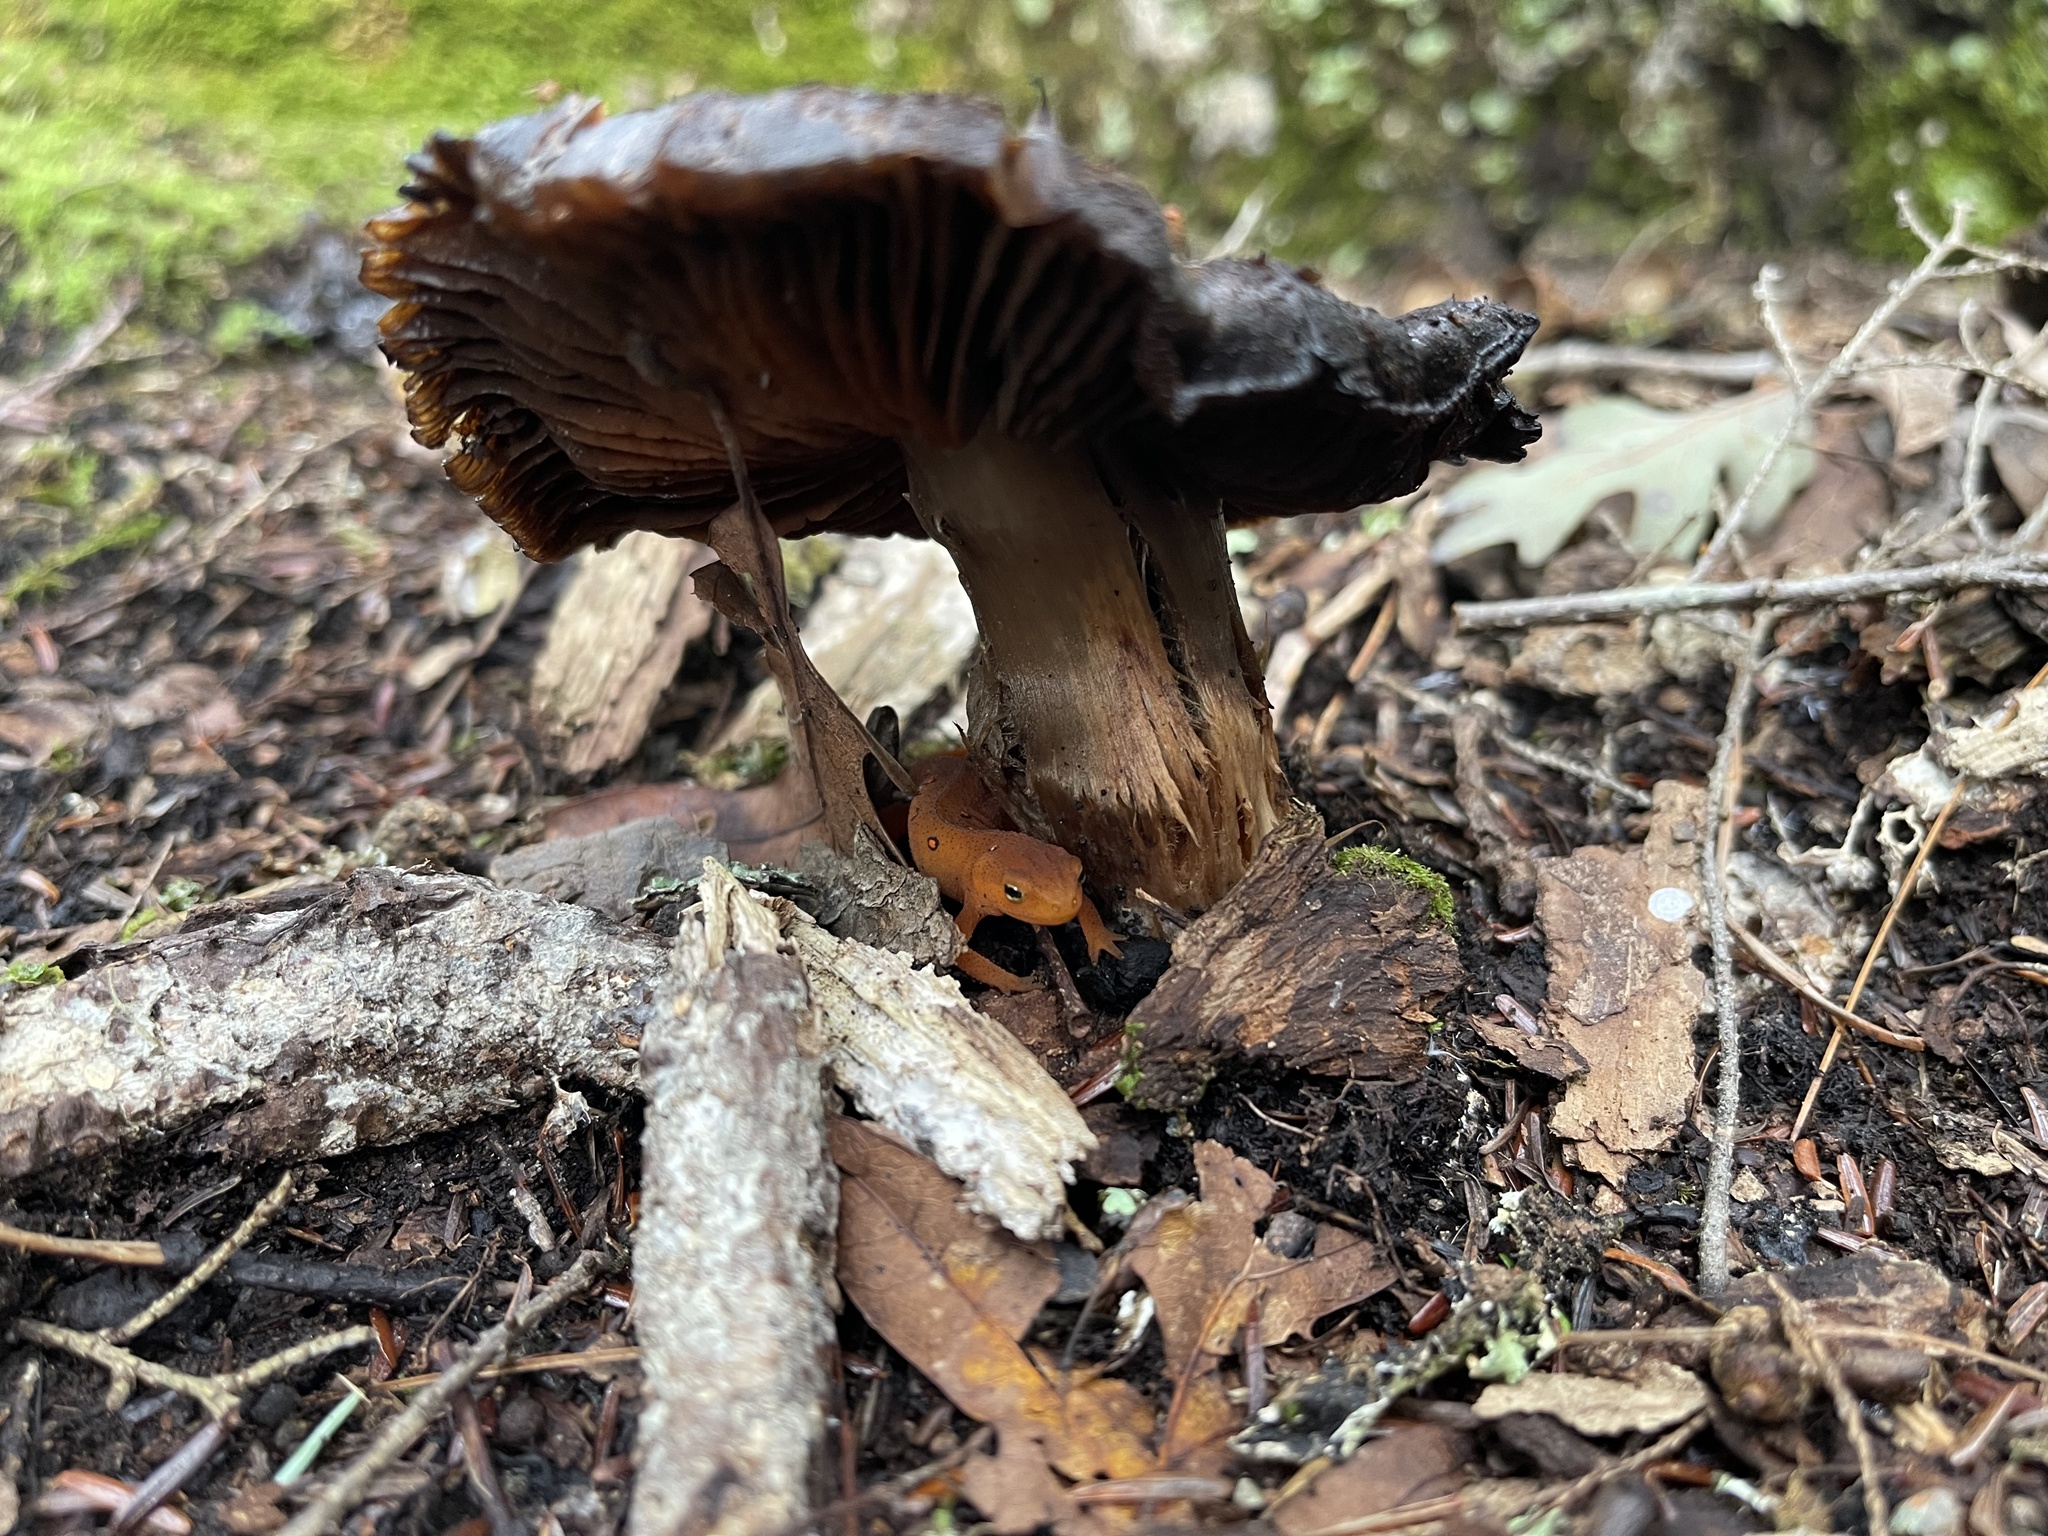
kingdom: Animalia
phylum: Chordata
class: Amphibia
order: Caudata
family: Salamandridae
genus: Notophthalmus
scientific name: Notophthalmus viridescens
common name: Eastern newt
